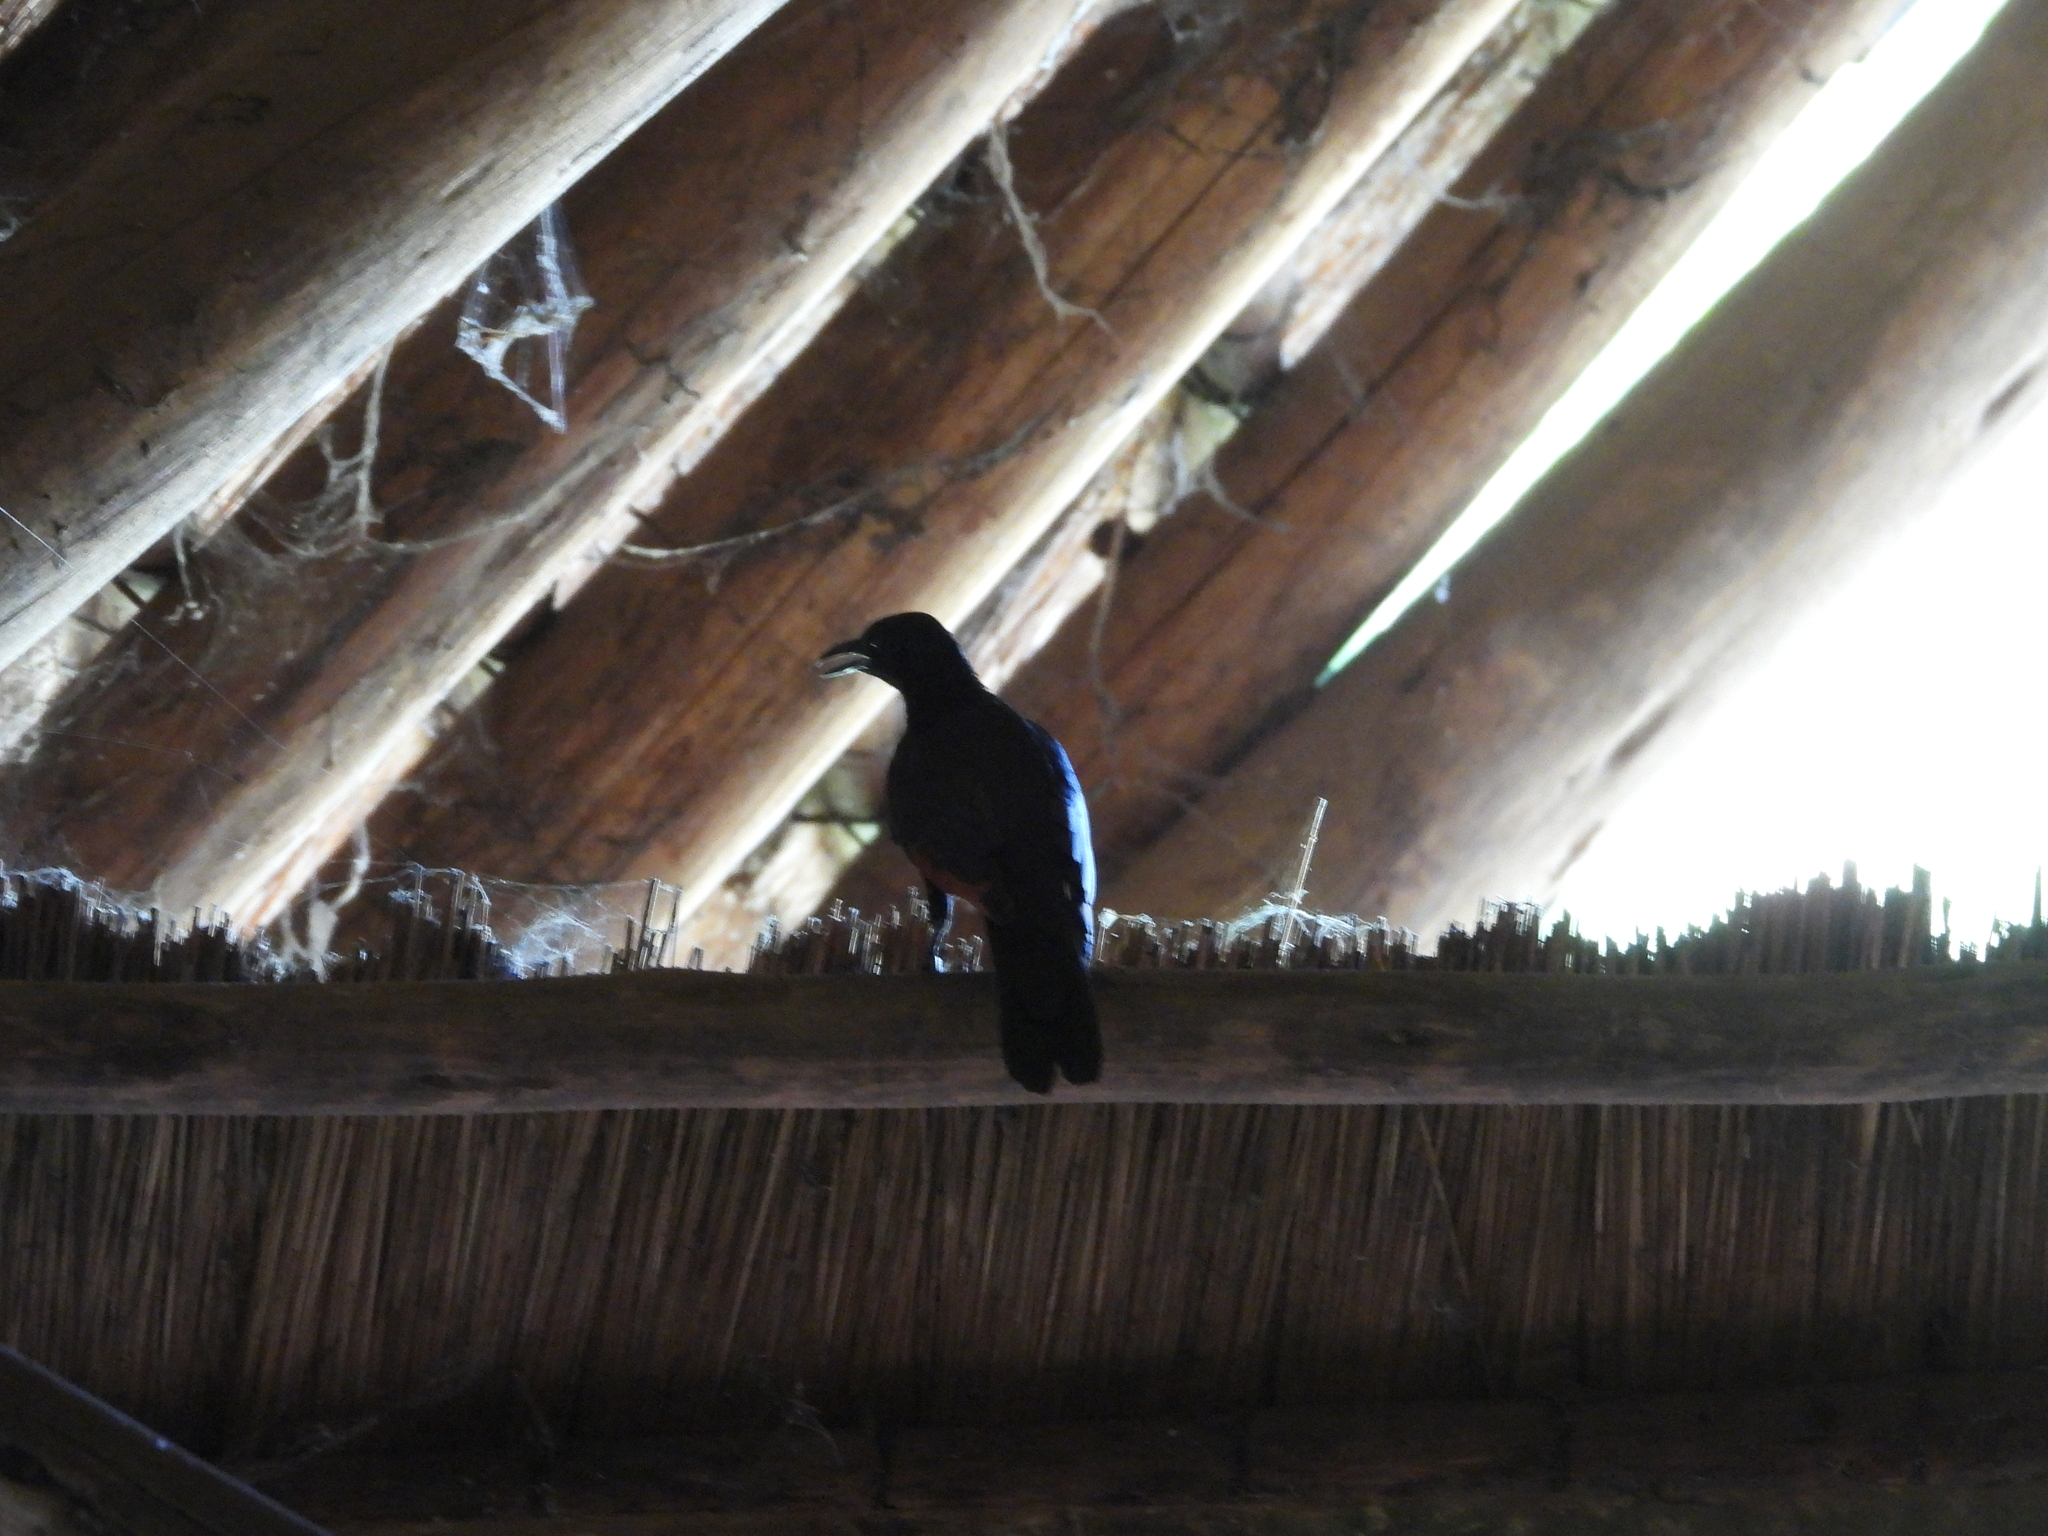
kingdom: Animalia
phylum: Chordata
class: Aves
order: Passeriformes
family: Sturnidae
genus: Onychognathus
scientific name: Onychognathus morio
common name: Red-winged starling
